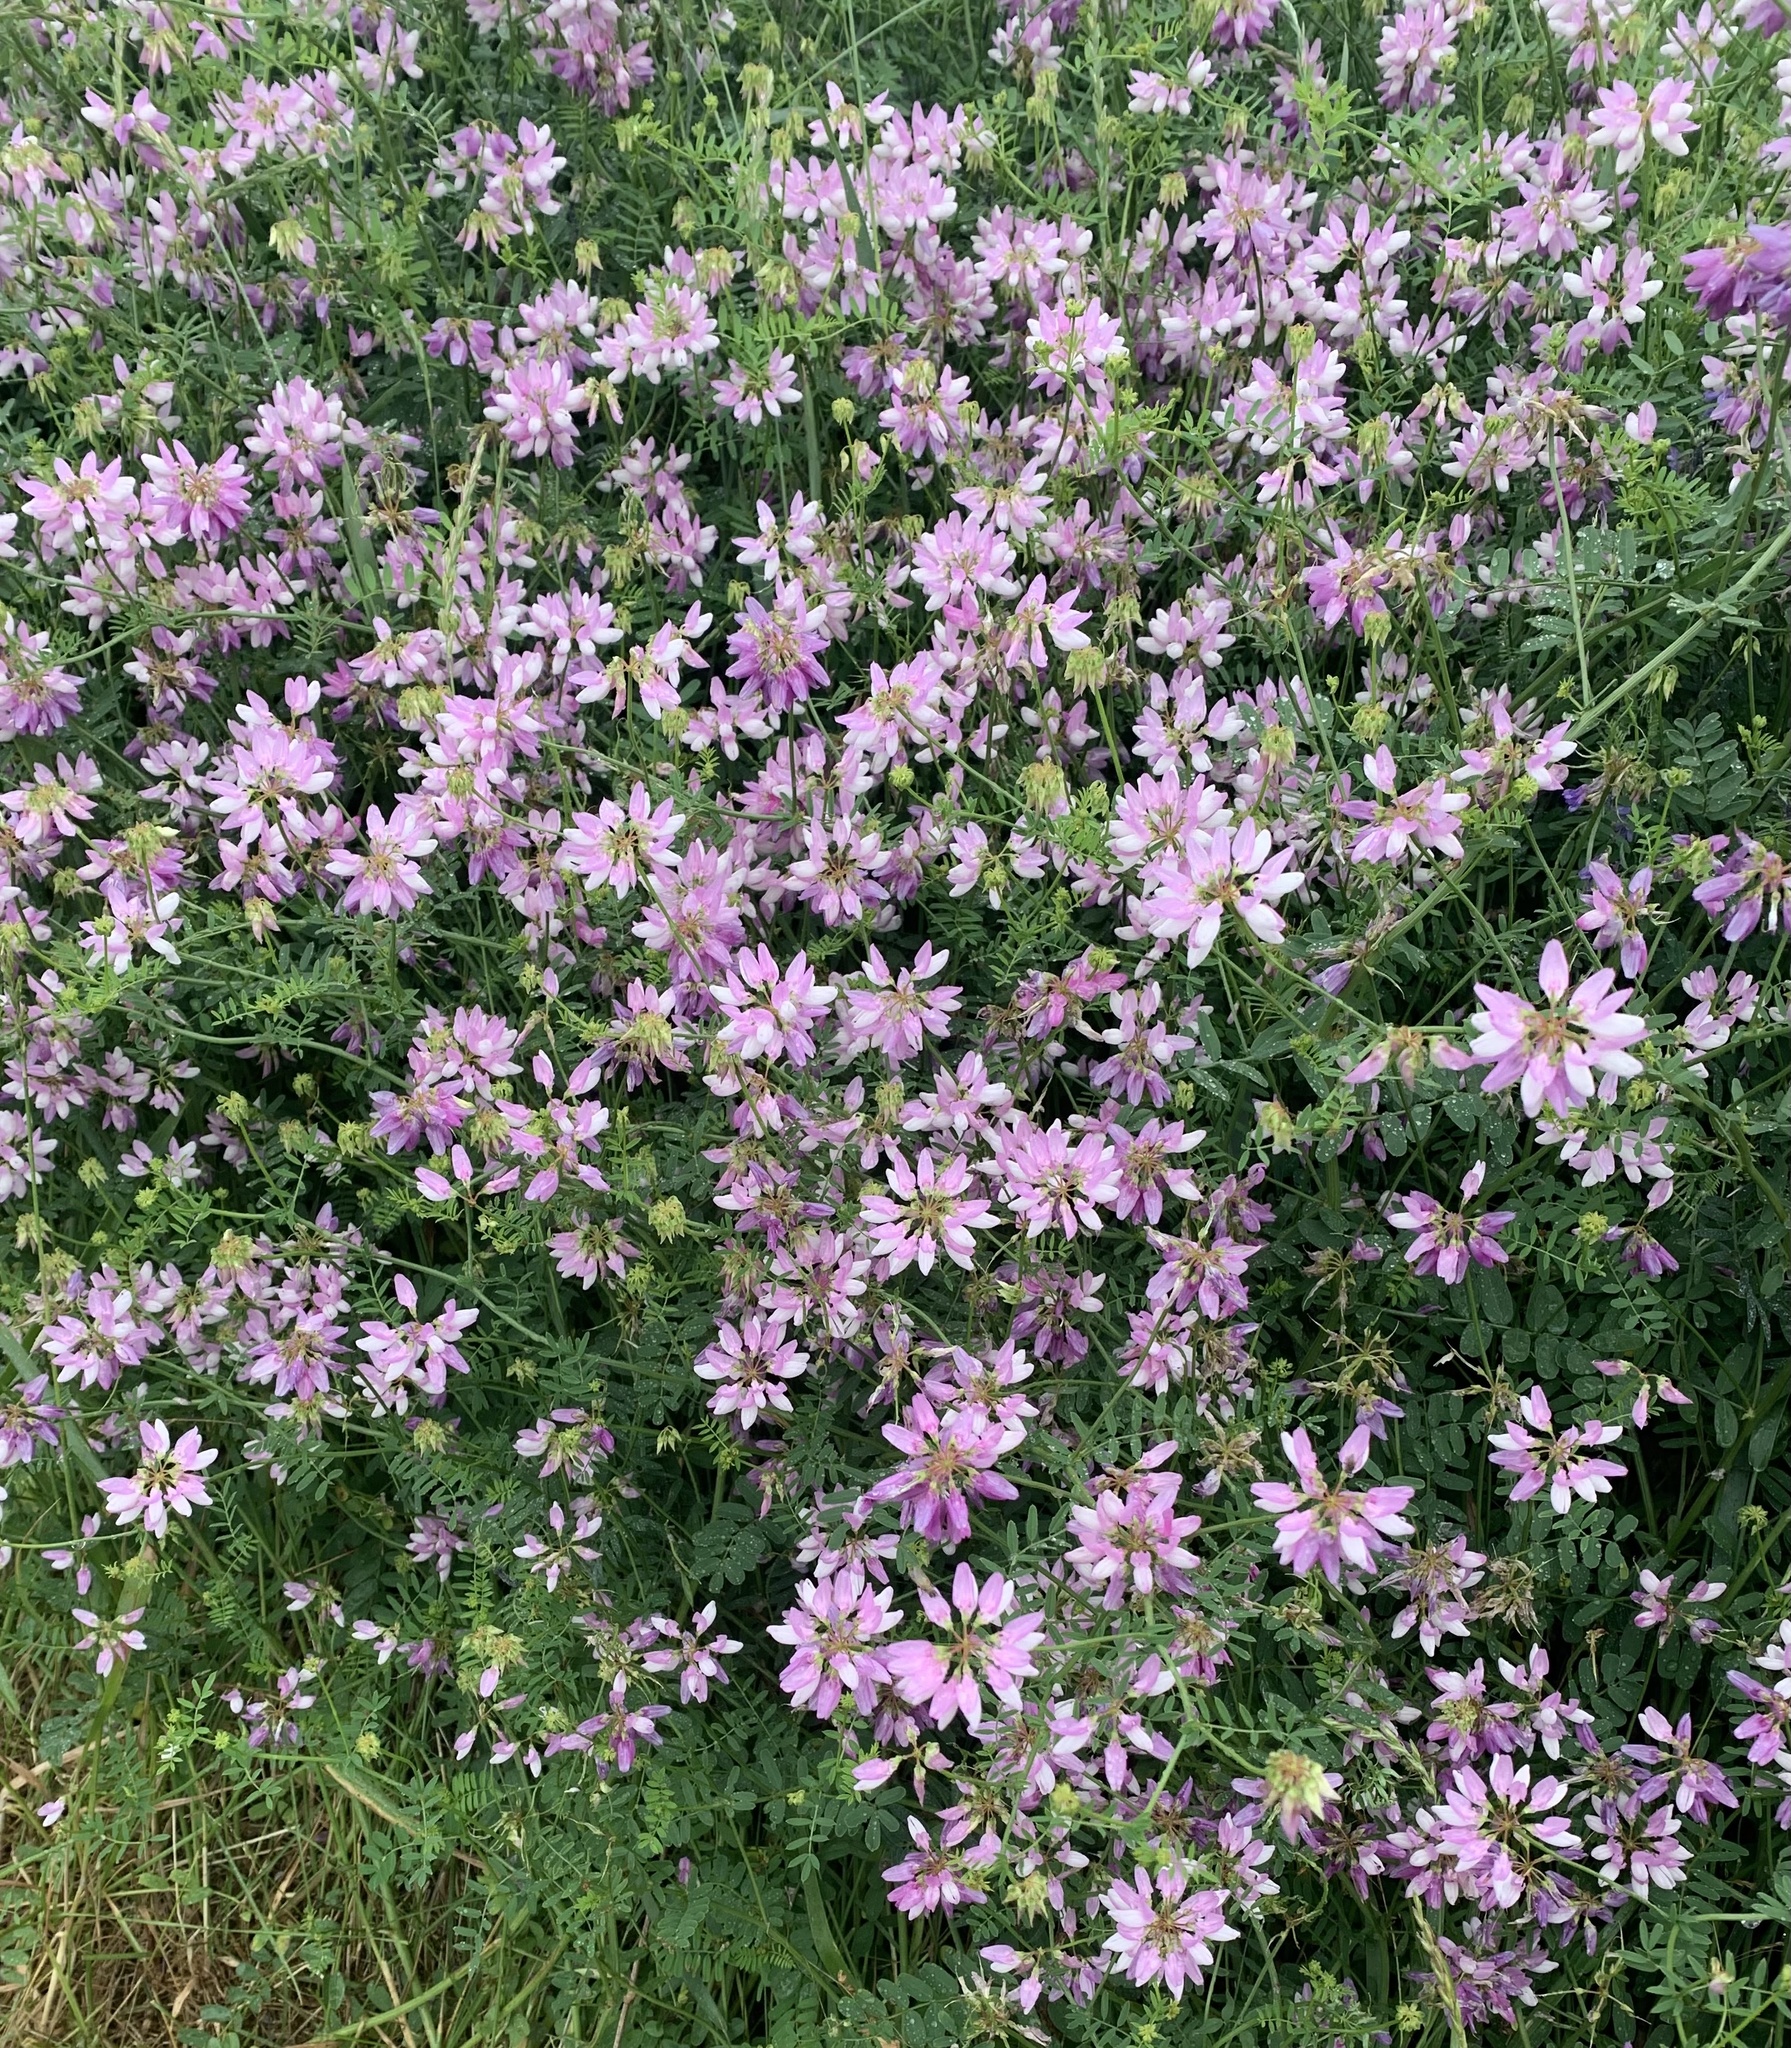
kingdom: Plantae
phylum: Tracheophyta
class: Magnoliopsida
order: Fabales
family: Fabaceae
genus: Coronilla
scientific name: Coronilla varia
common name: Crownvetch
